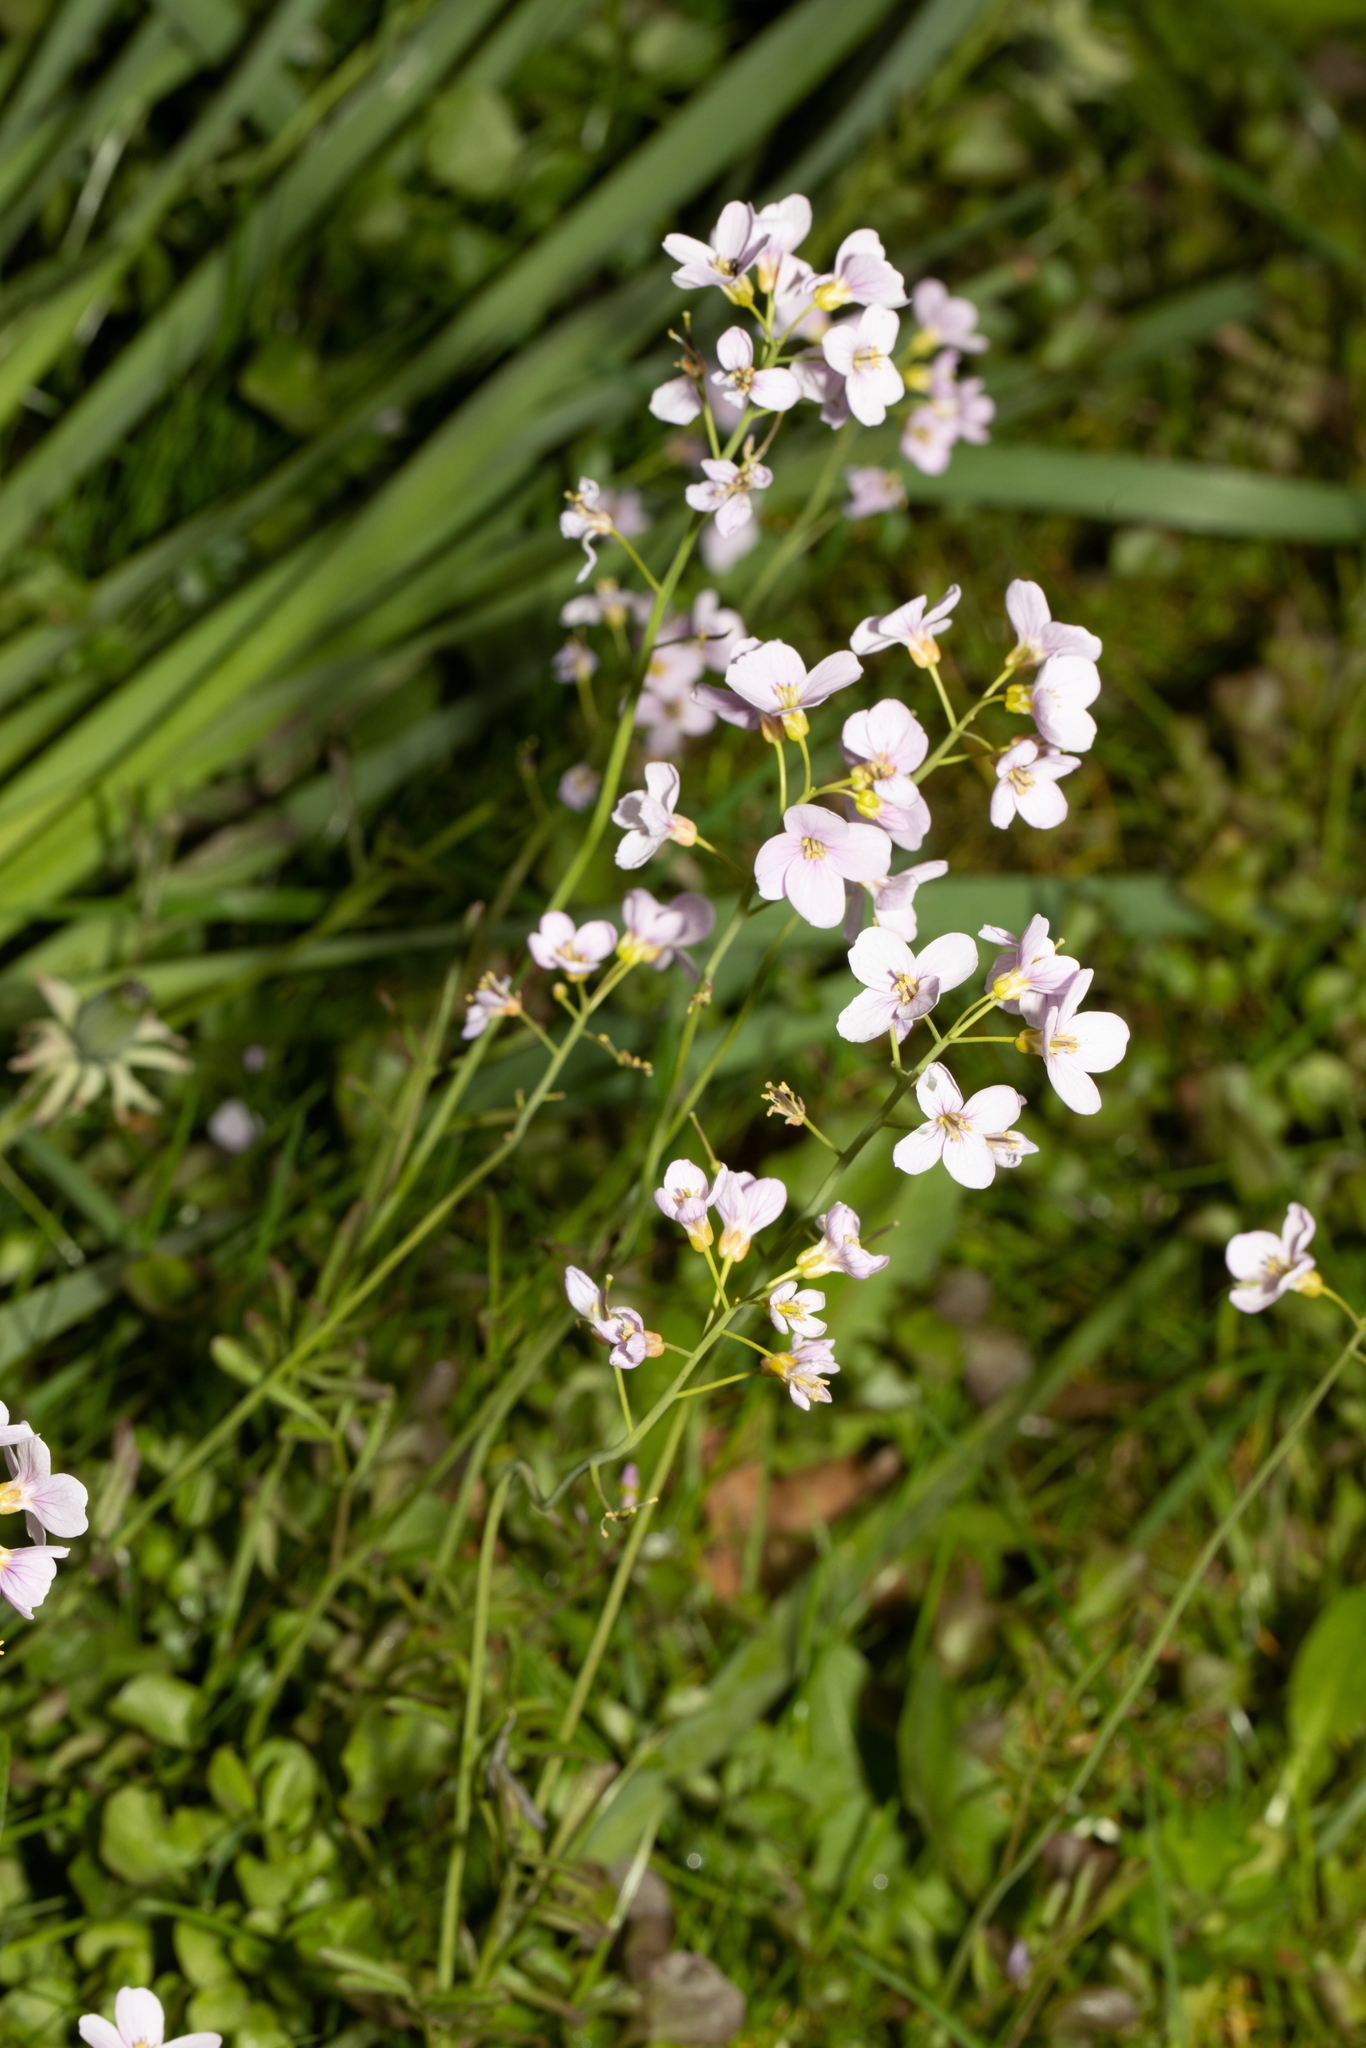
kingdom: Plantae
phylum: Tracheophyta
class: Magnoliopsida
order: Brassicales
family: Brassicaceae
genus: Cardamine
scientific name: Cardamine pratensis
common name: Cuckoo flower
